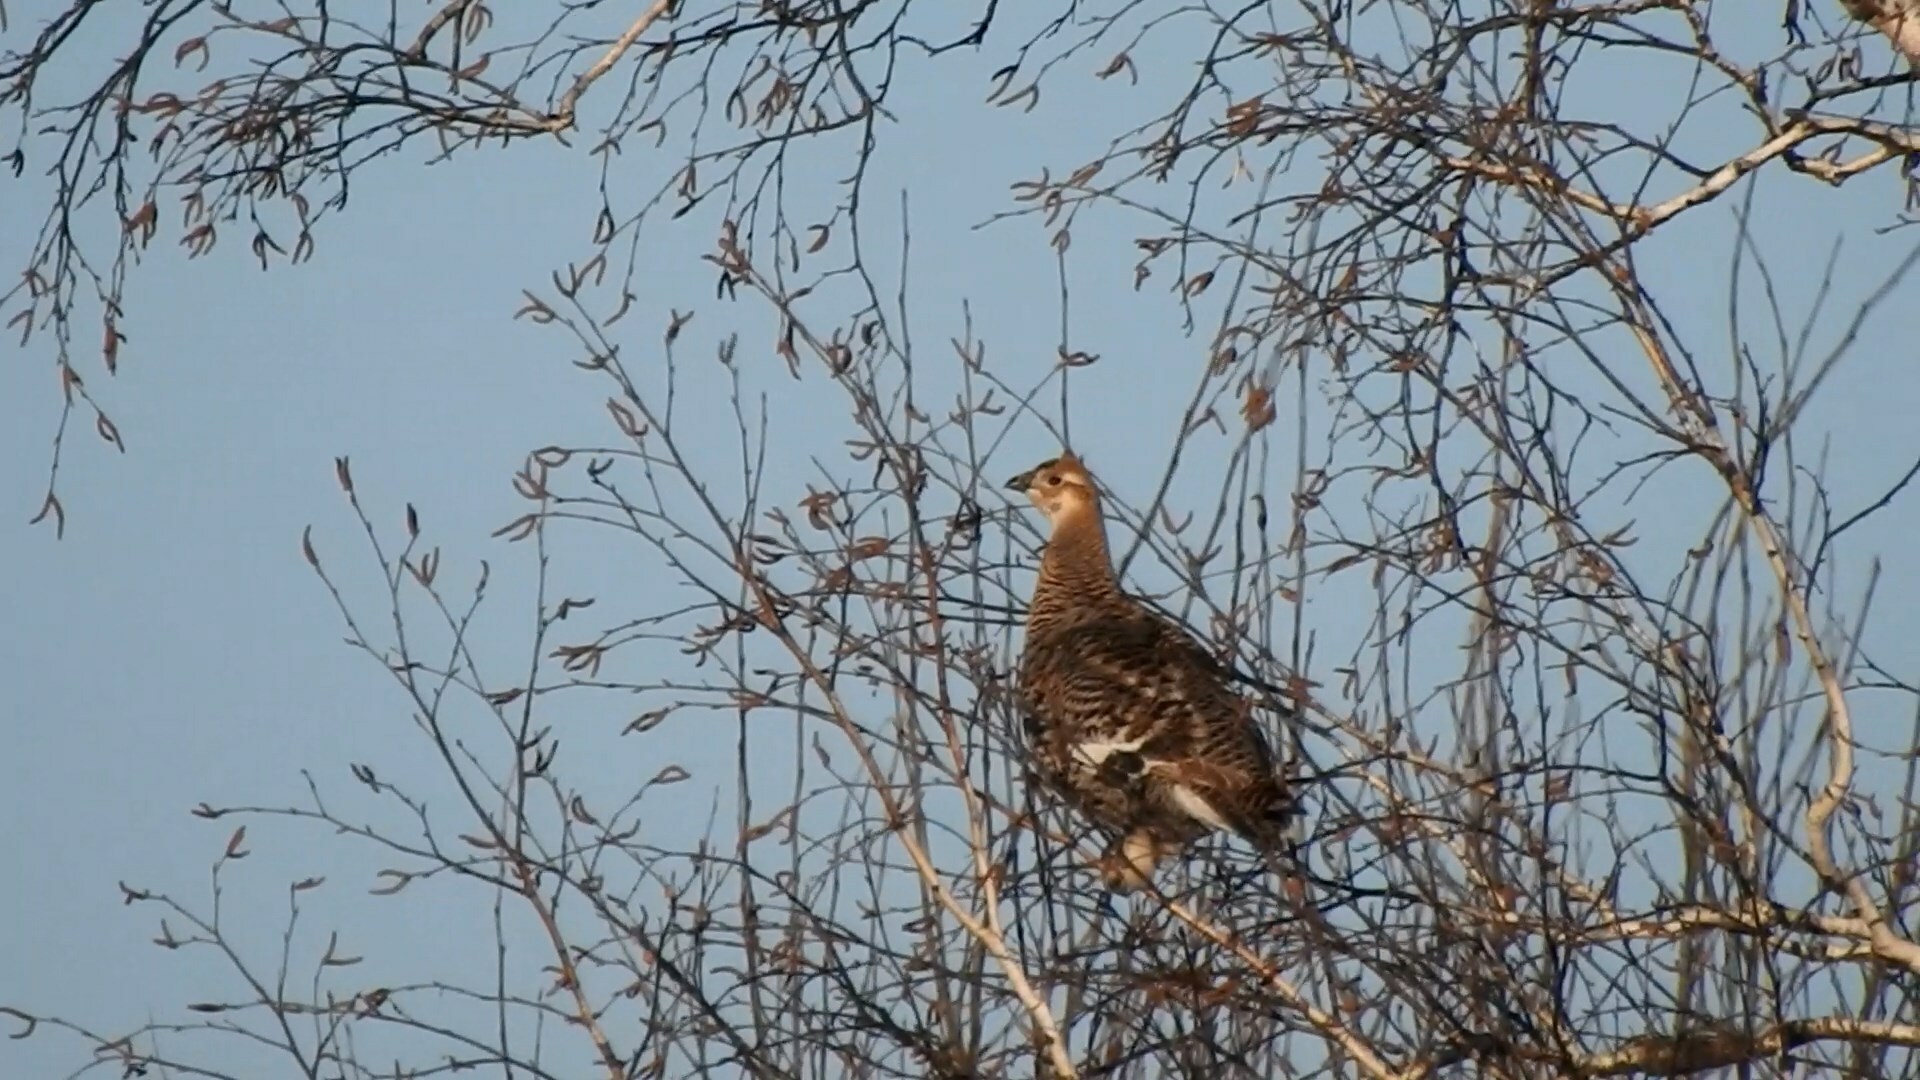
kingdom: Animalia
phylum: Chordata
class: Aves
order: Galliformes
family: Phasianidae
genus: Lyrurus
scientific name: Lyrurus tetrix
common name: Black grouse
